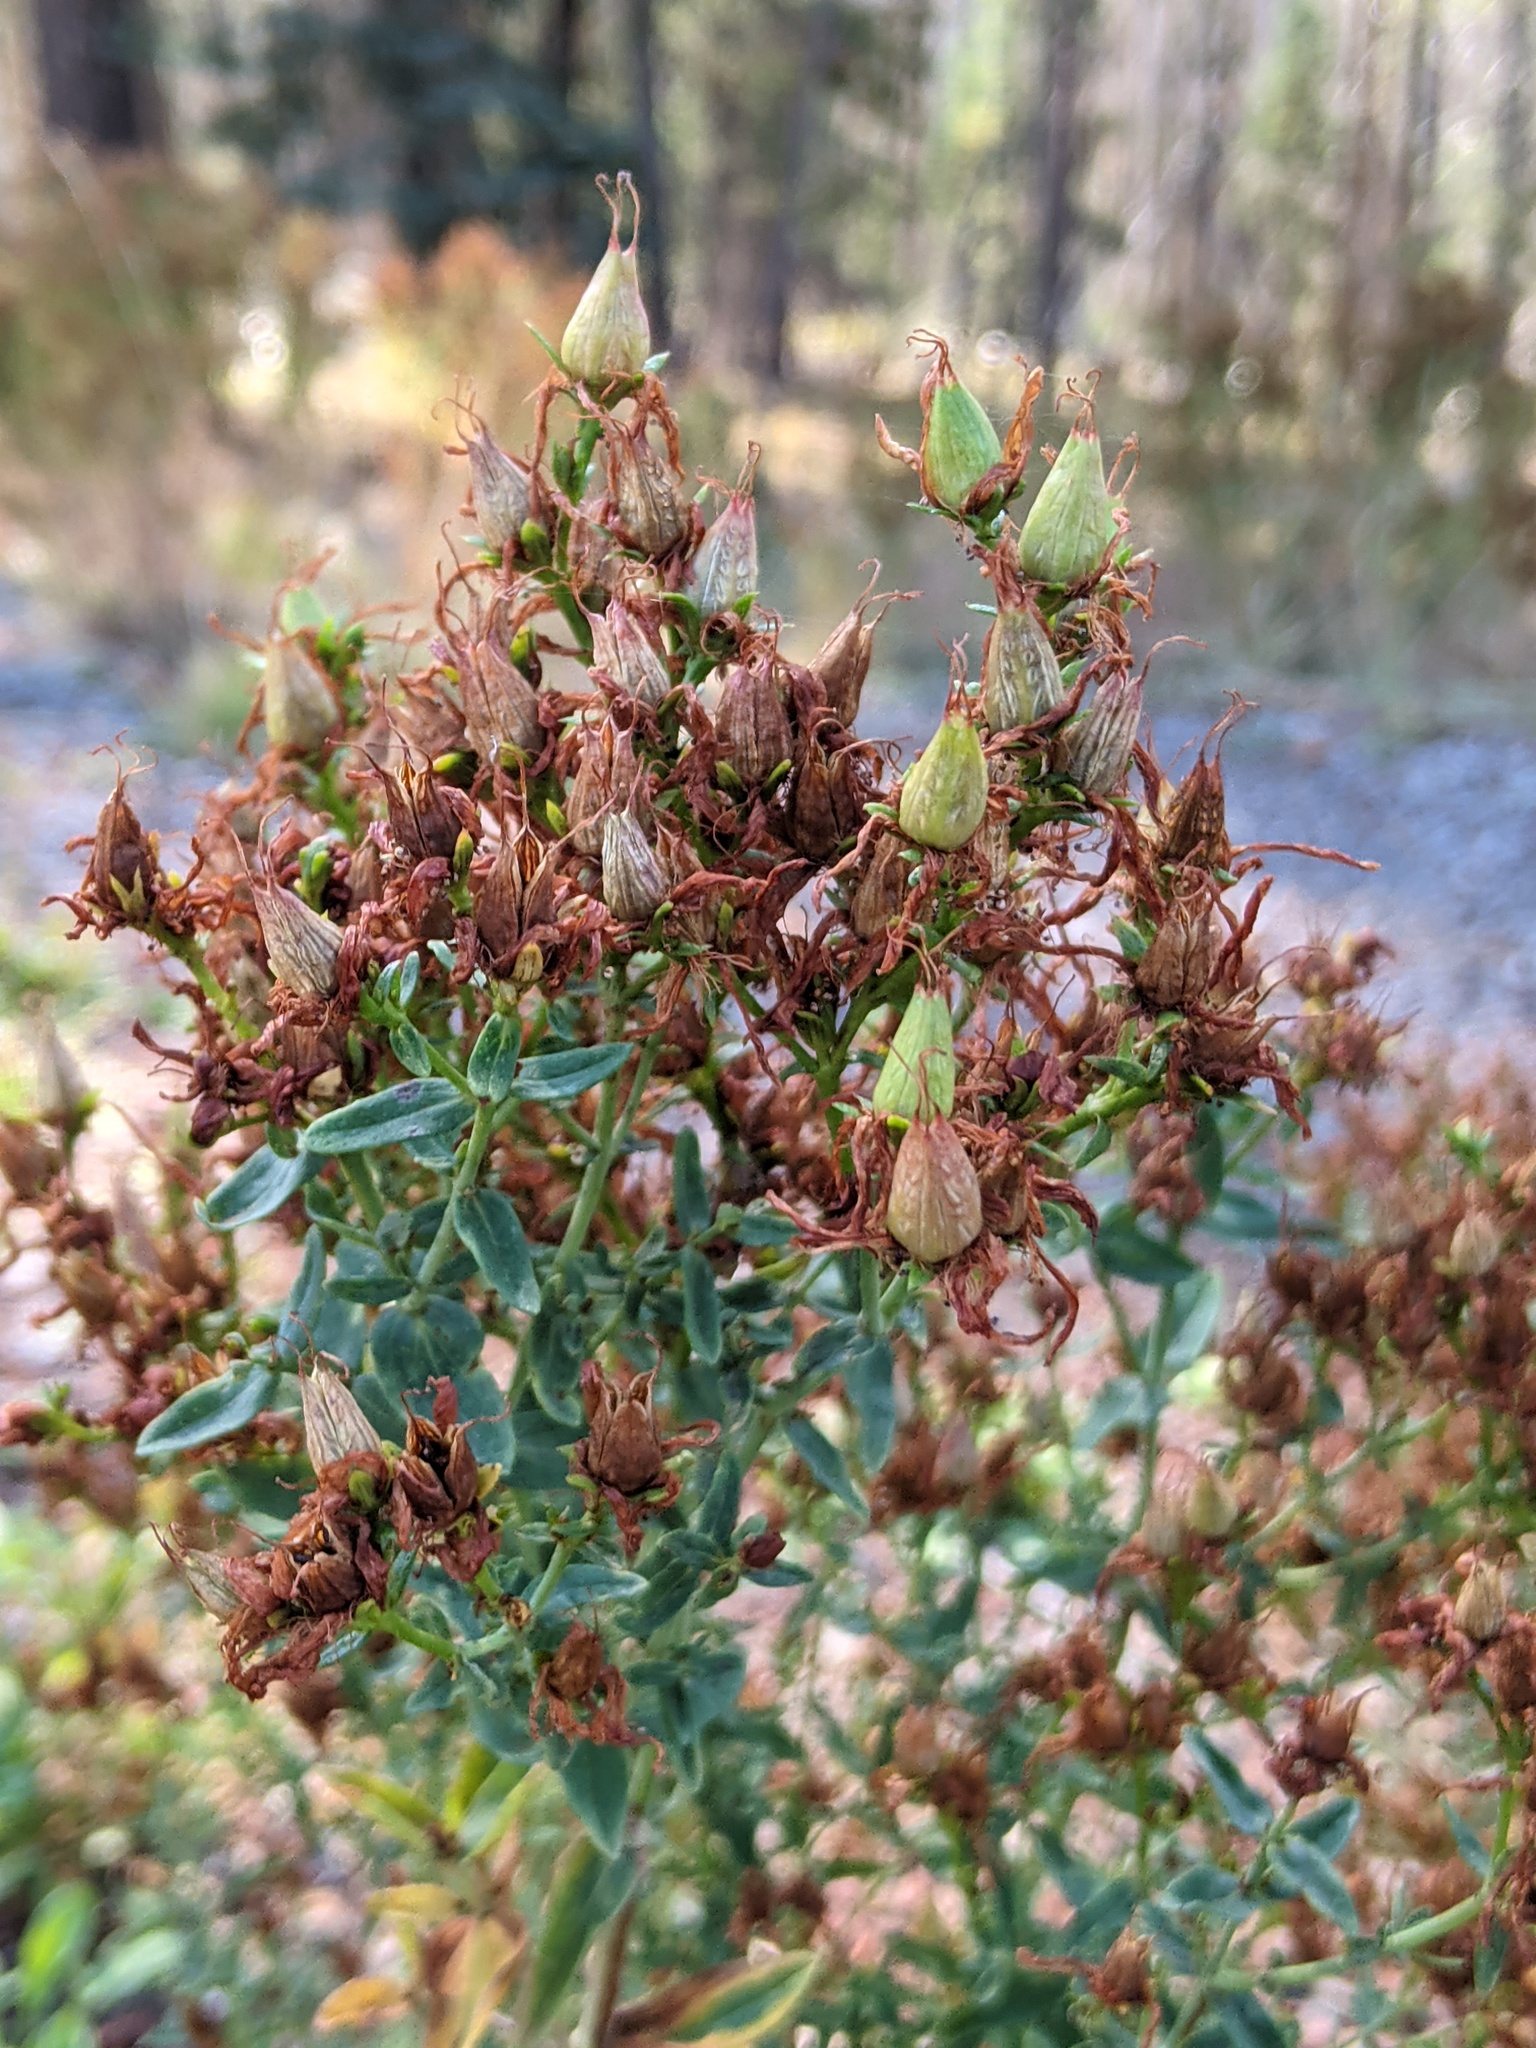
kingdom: Plantae
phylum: Tracheophyta
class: Magnoliopsida
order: Malpighiales
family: Hypericaceae
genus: Hypericum
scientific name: Hypericum perforatum
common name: Common st. johnswort
